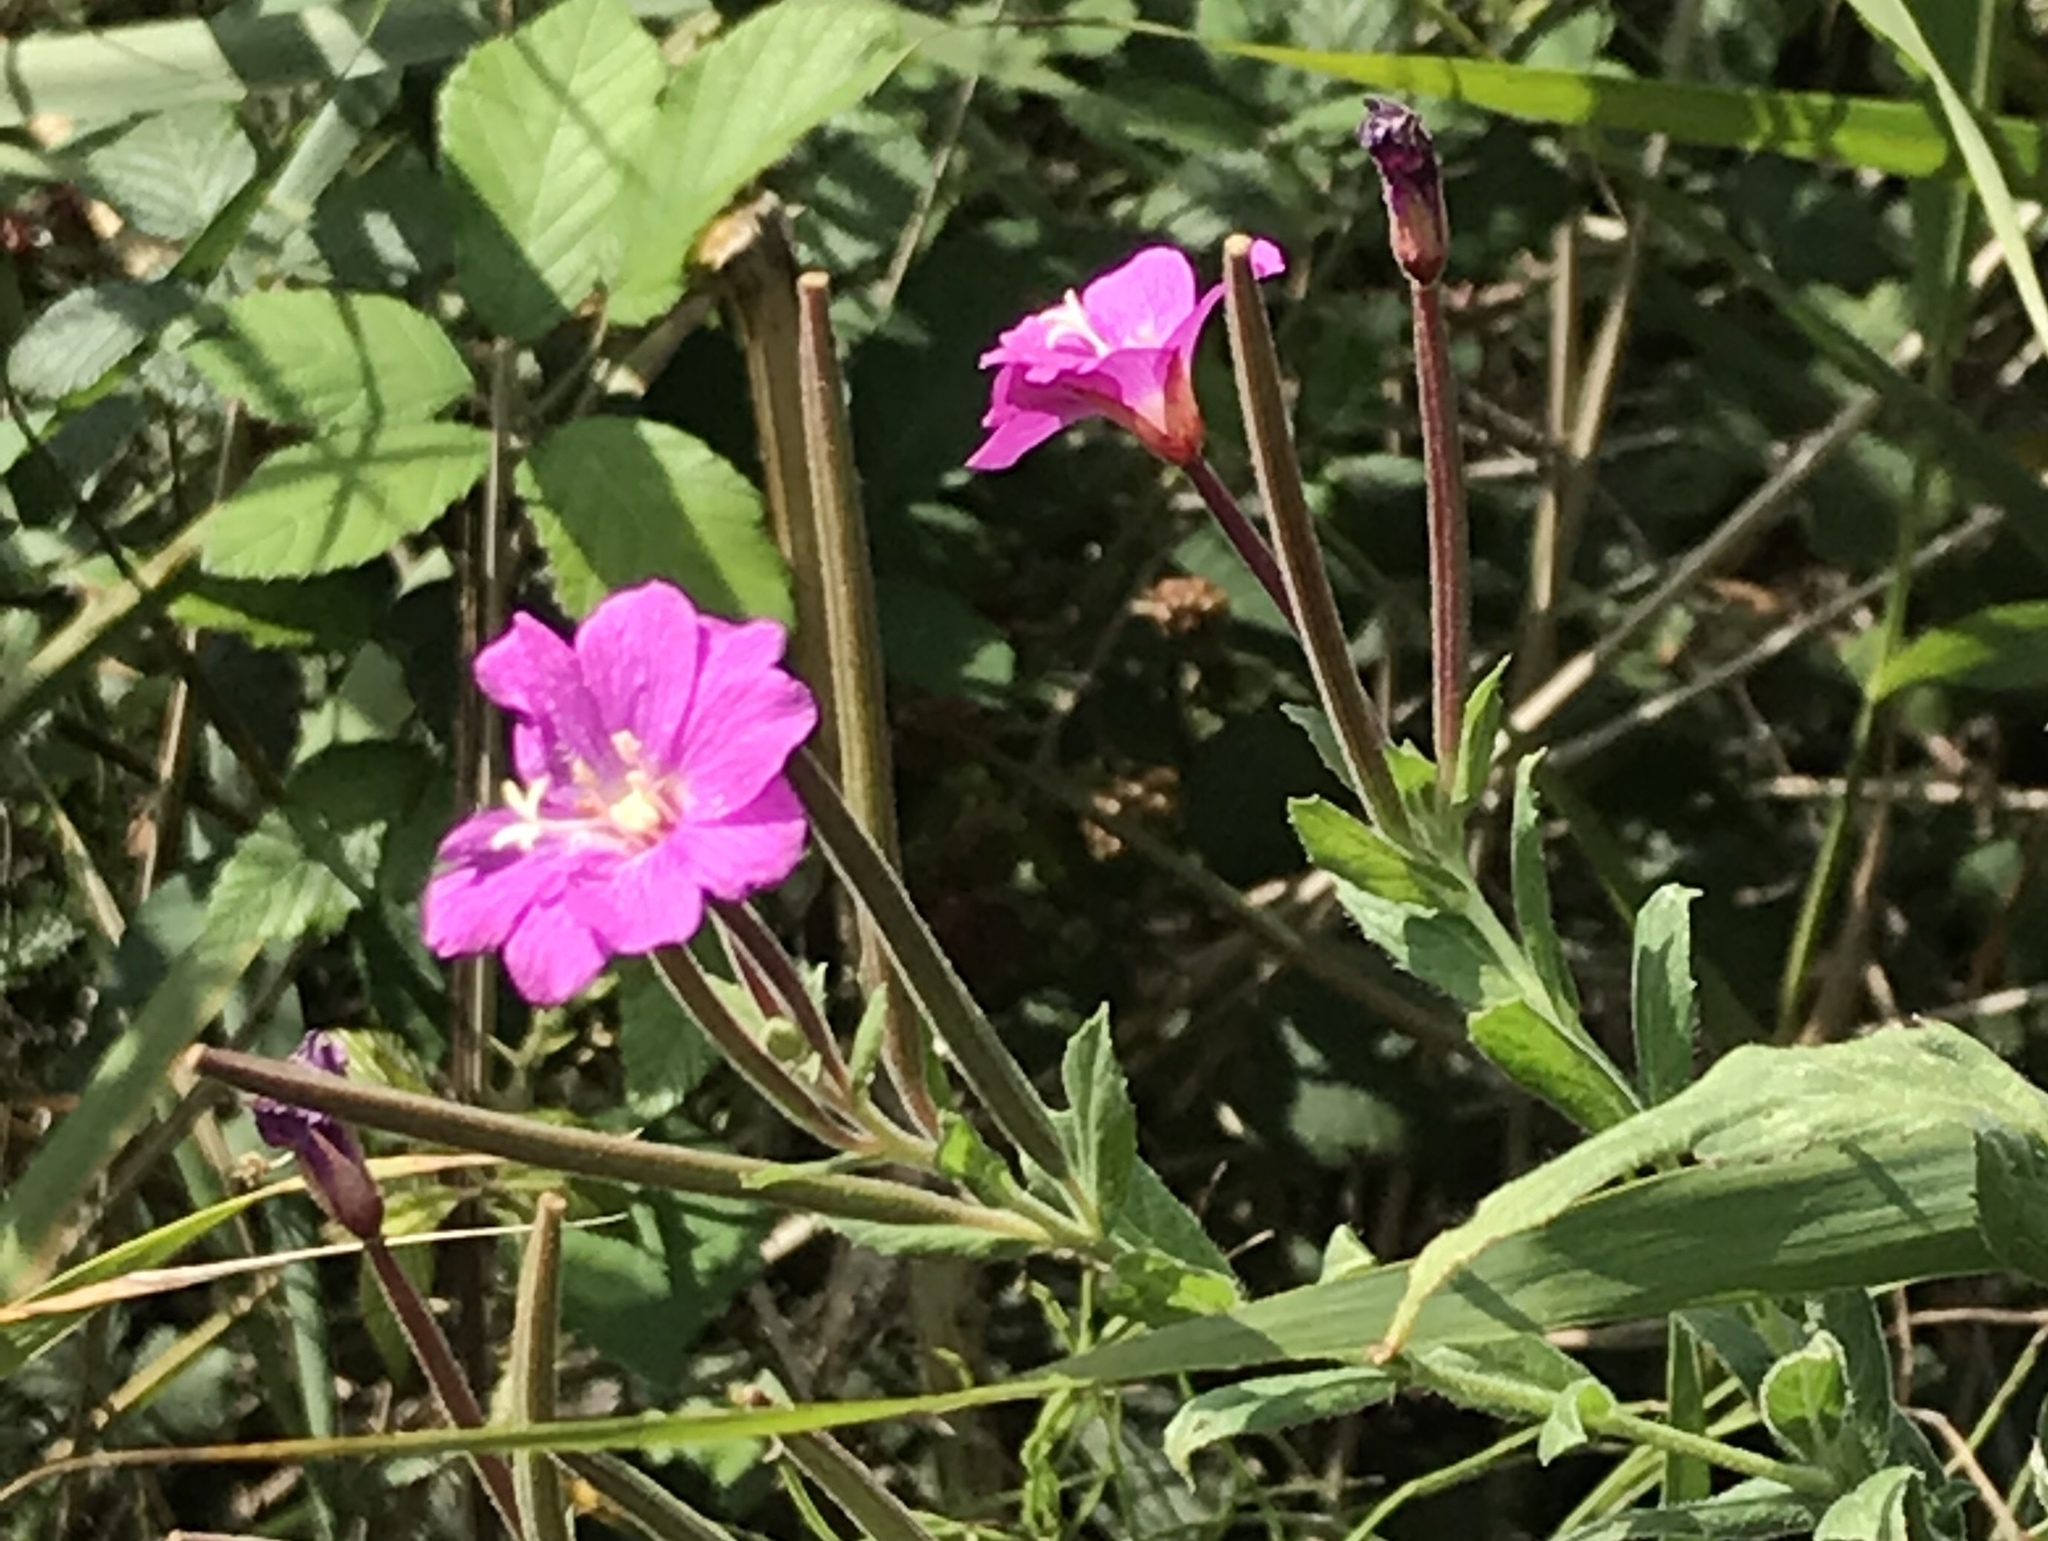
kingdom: Plantae
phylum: Tracheophyta
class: Magnoliopsida
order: Myrtales
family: Onagraceae
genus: Epilobium
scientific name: Epilobium hirsutum
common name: Great willowherb
